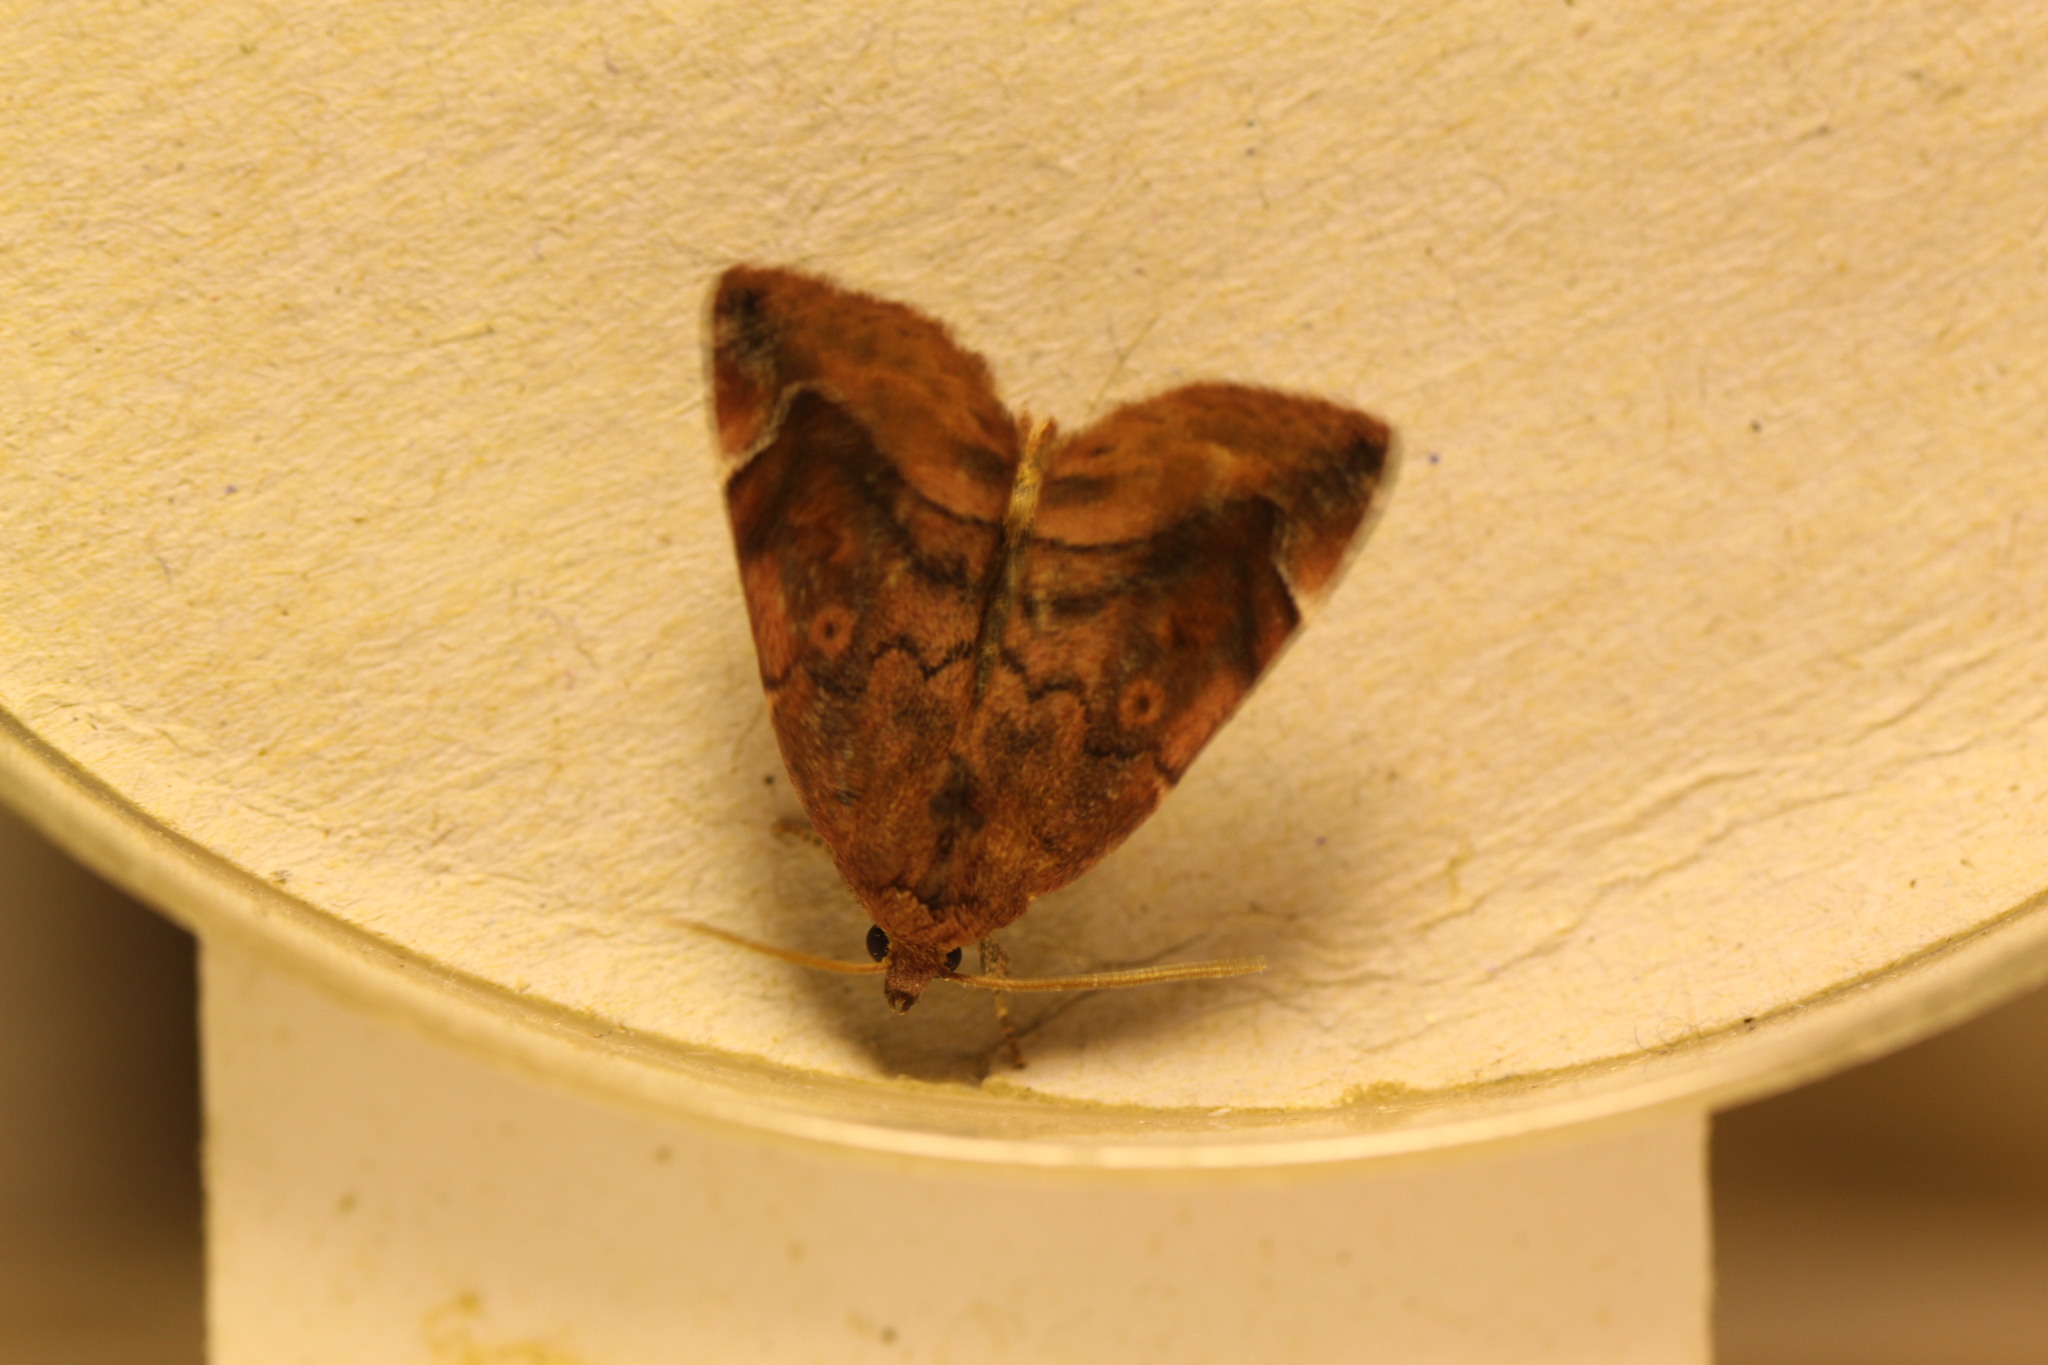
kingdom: Animalia
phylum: Arthropoda
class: Insecta
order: Lepidoptera
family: Noctuidae
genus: Cosmia
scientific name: Cosmia pyralina
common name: Lunar-spotted pinion
